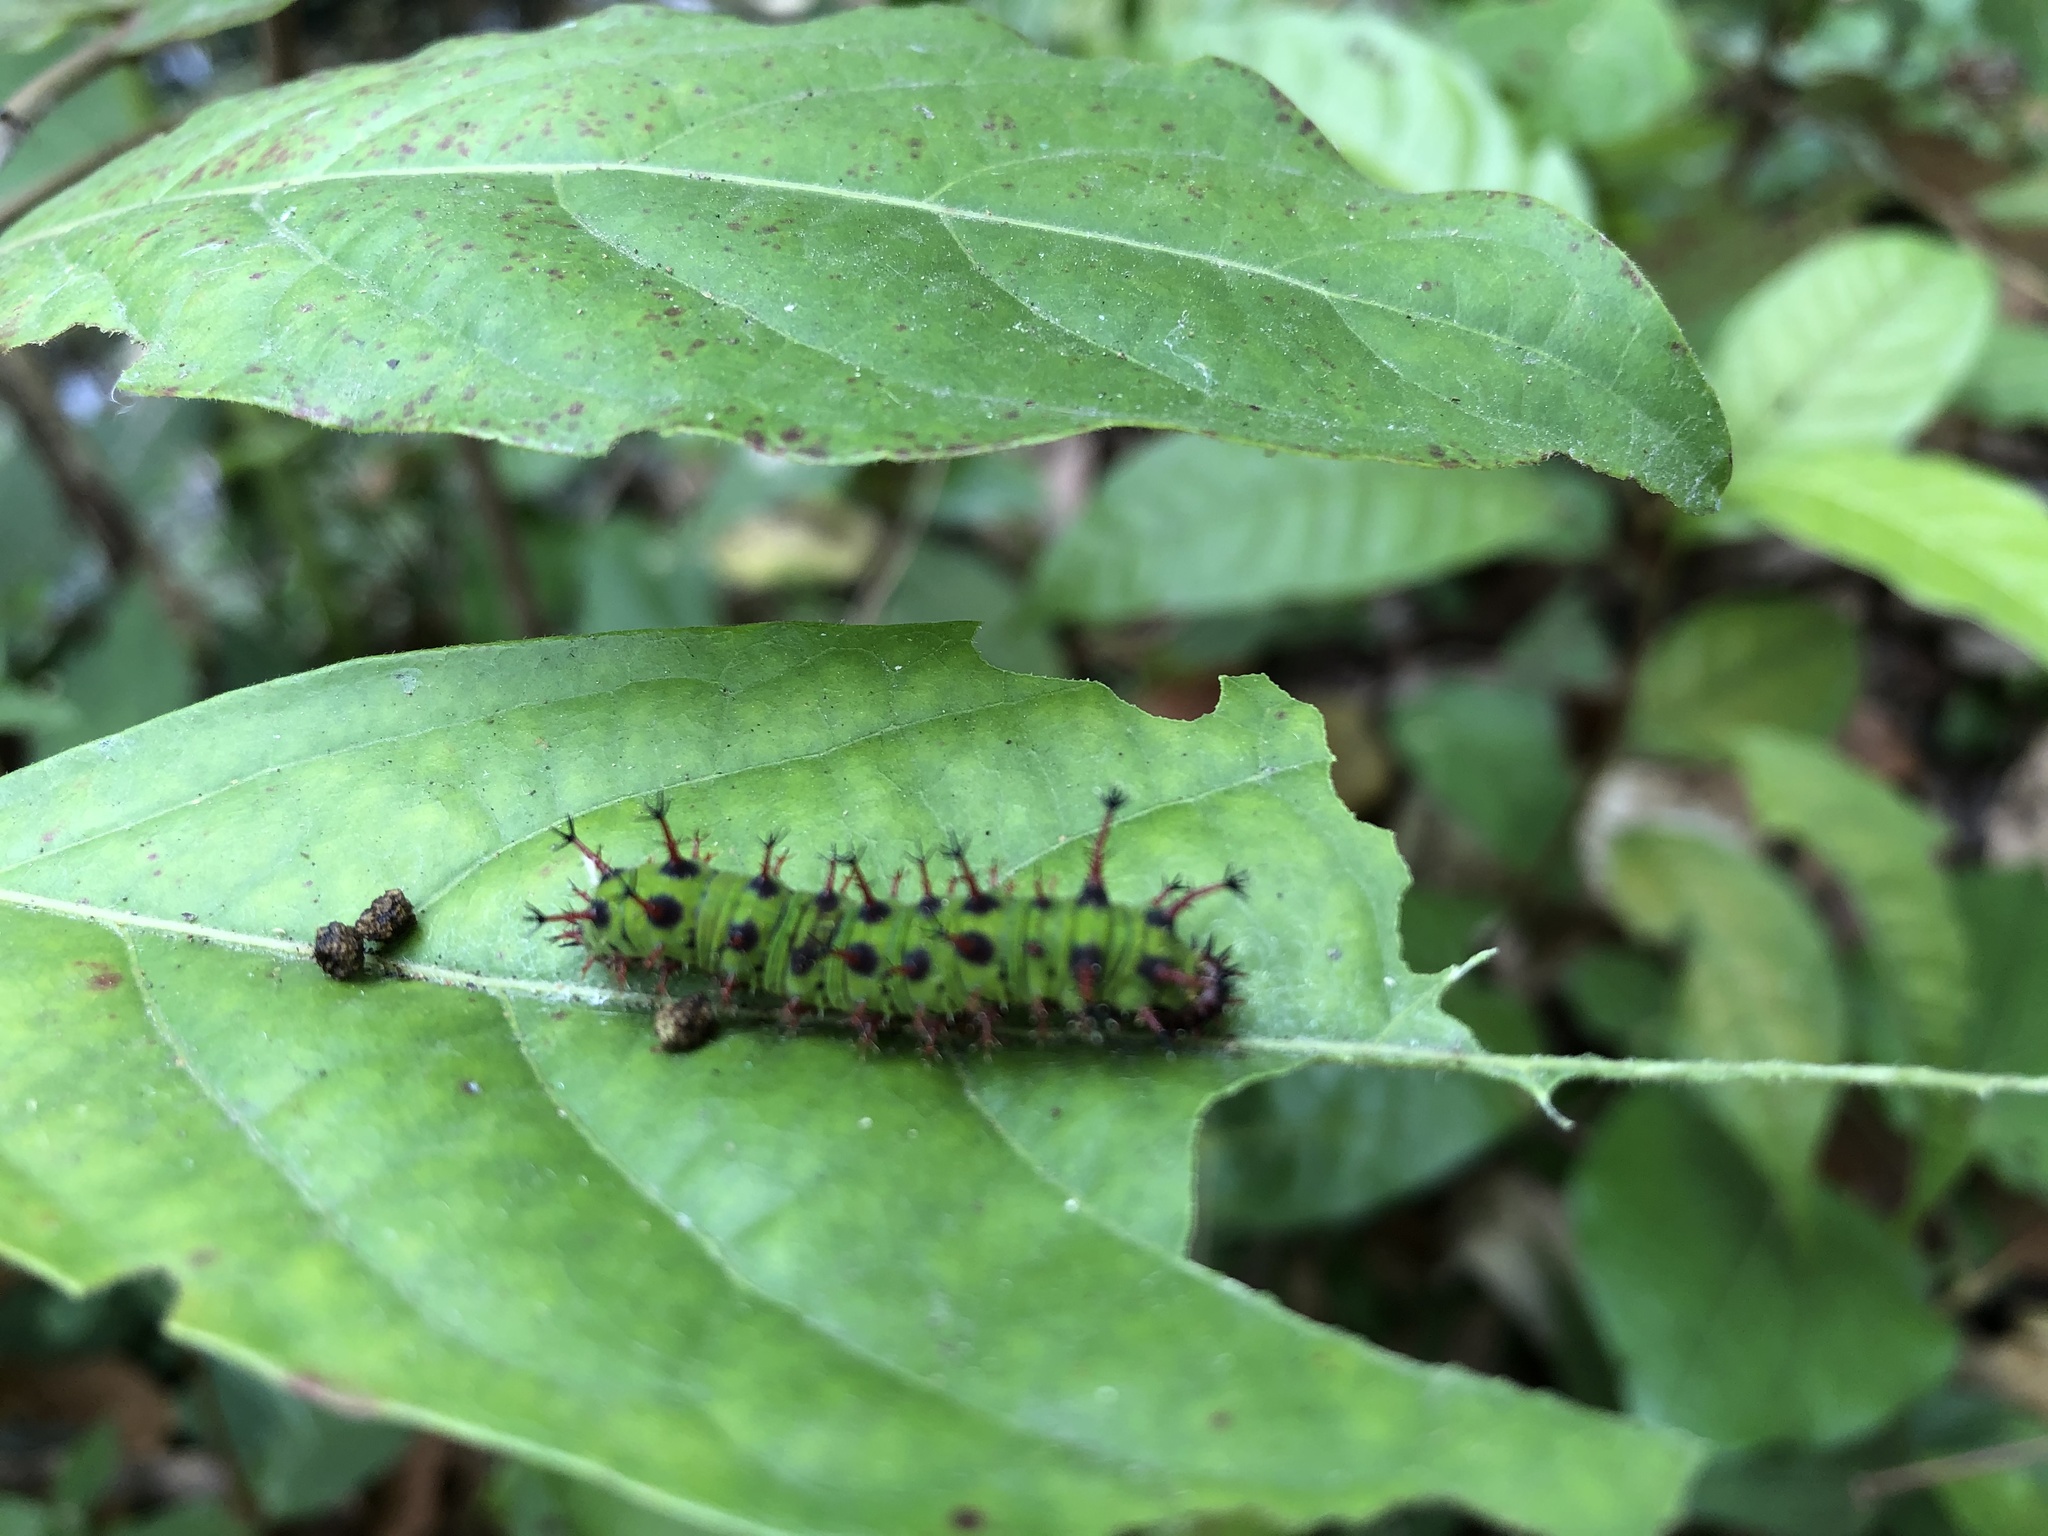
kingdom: Animalia
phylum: Arthropoda
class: Insecta
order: Lepidoptera
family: Nymphalidae
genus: Parathyma
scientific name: Parathyma perius
